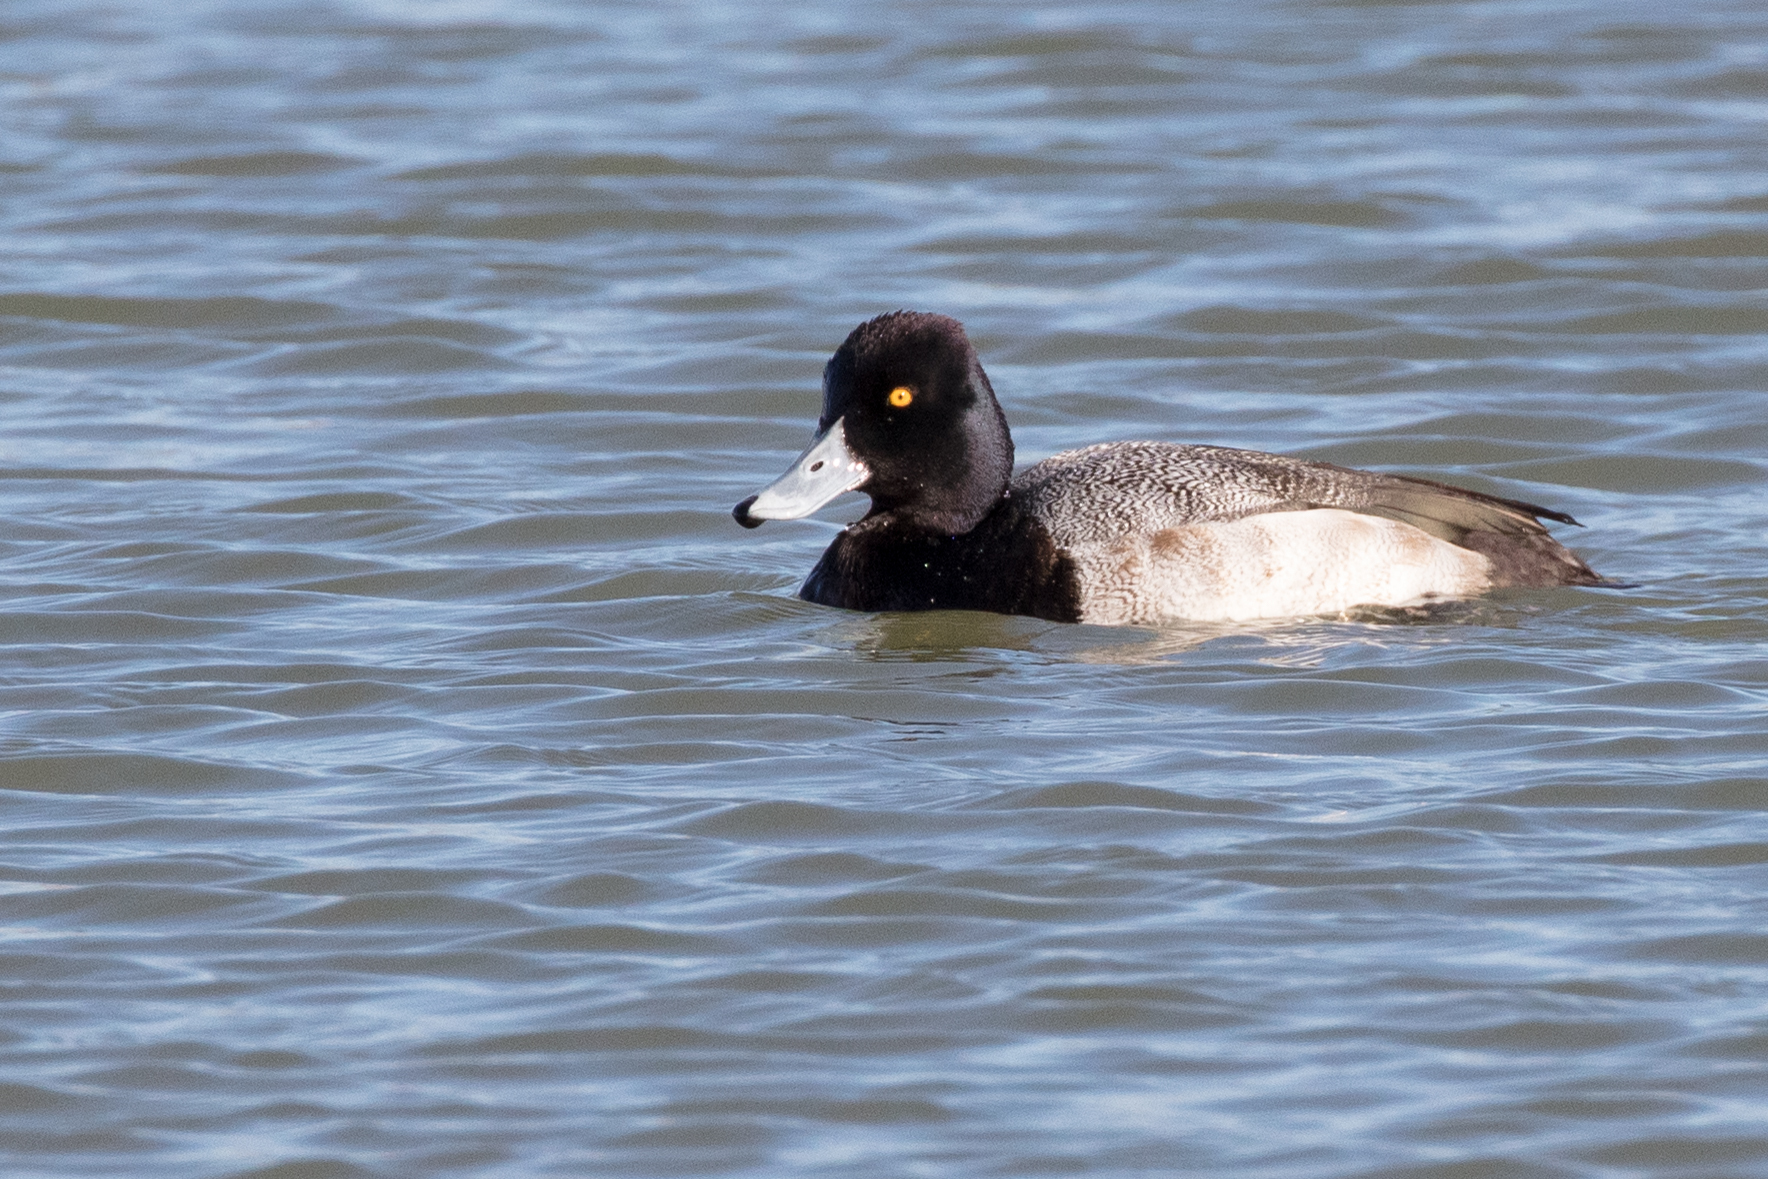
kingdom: Animalia
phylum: Chordata
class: Aves
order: Anseriformes
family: Anatidae
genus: Aythya
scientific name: Aythya affinis
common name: Lesser scaup
